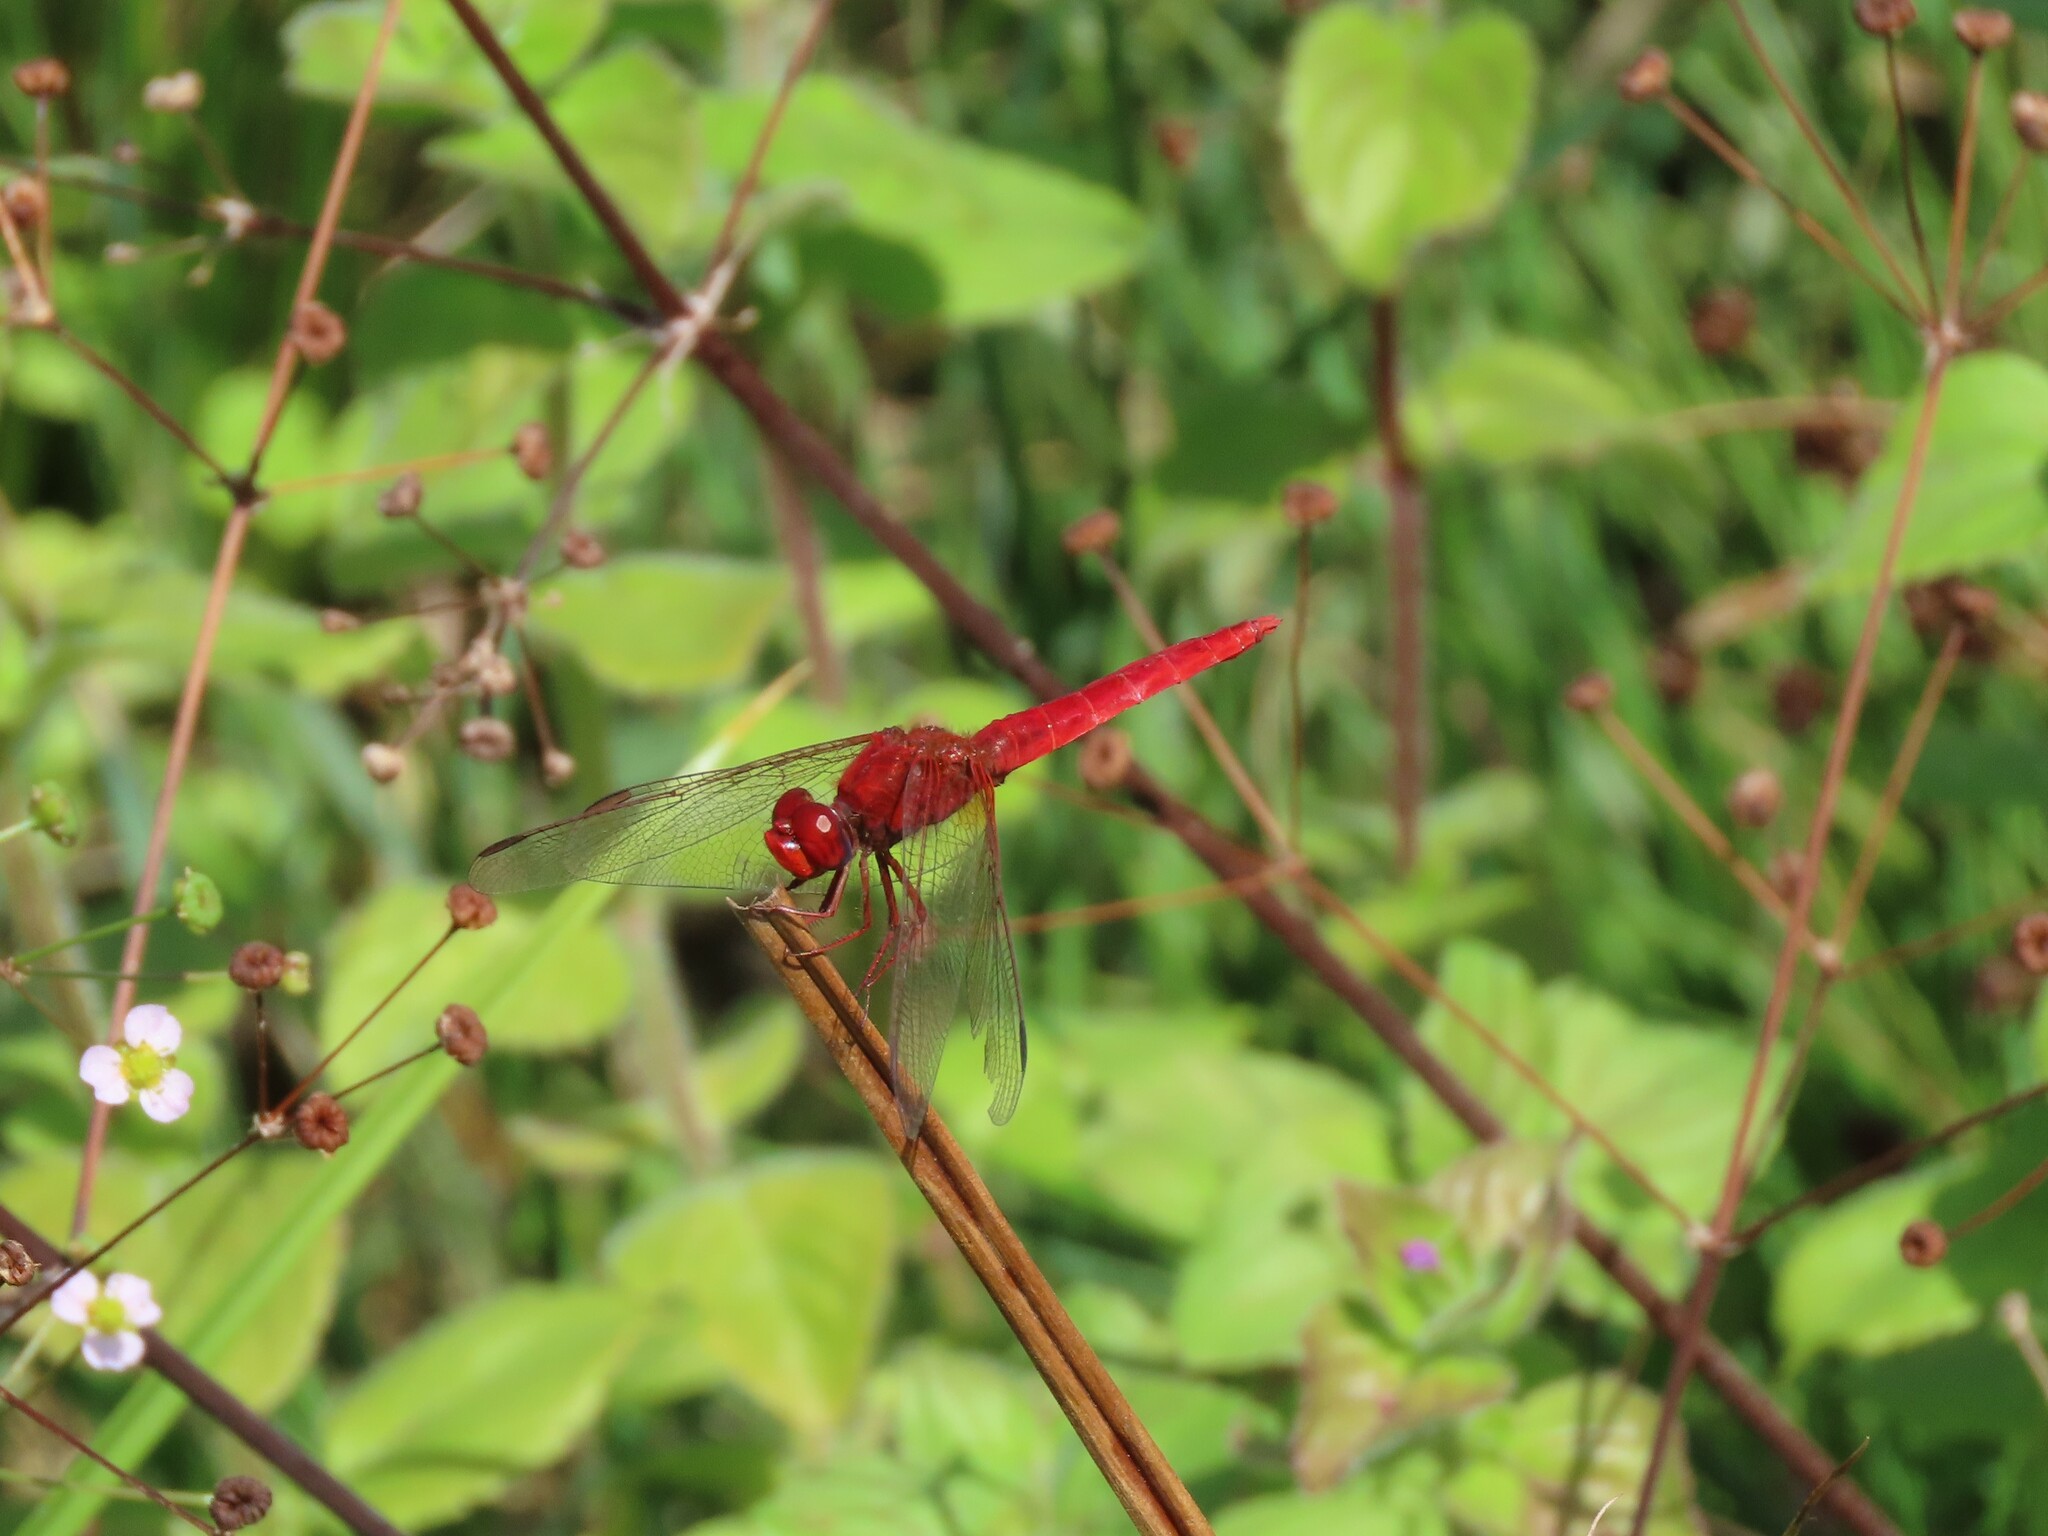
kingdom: Animalia
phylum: Arthropoda
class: Insecta
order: Odonata
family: Libellulidae
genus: Crocothemis
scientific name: Crocothemis erythraea
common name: Scarlet dragonfly
